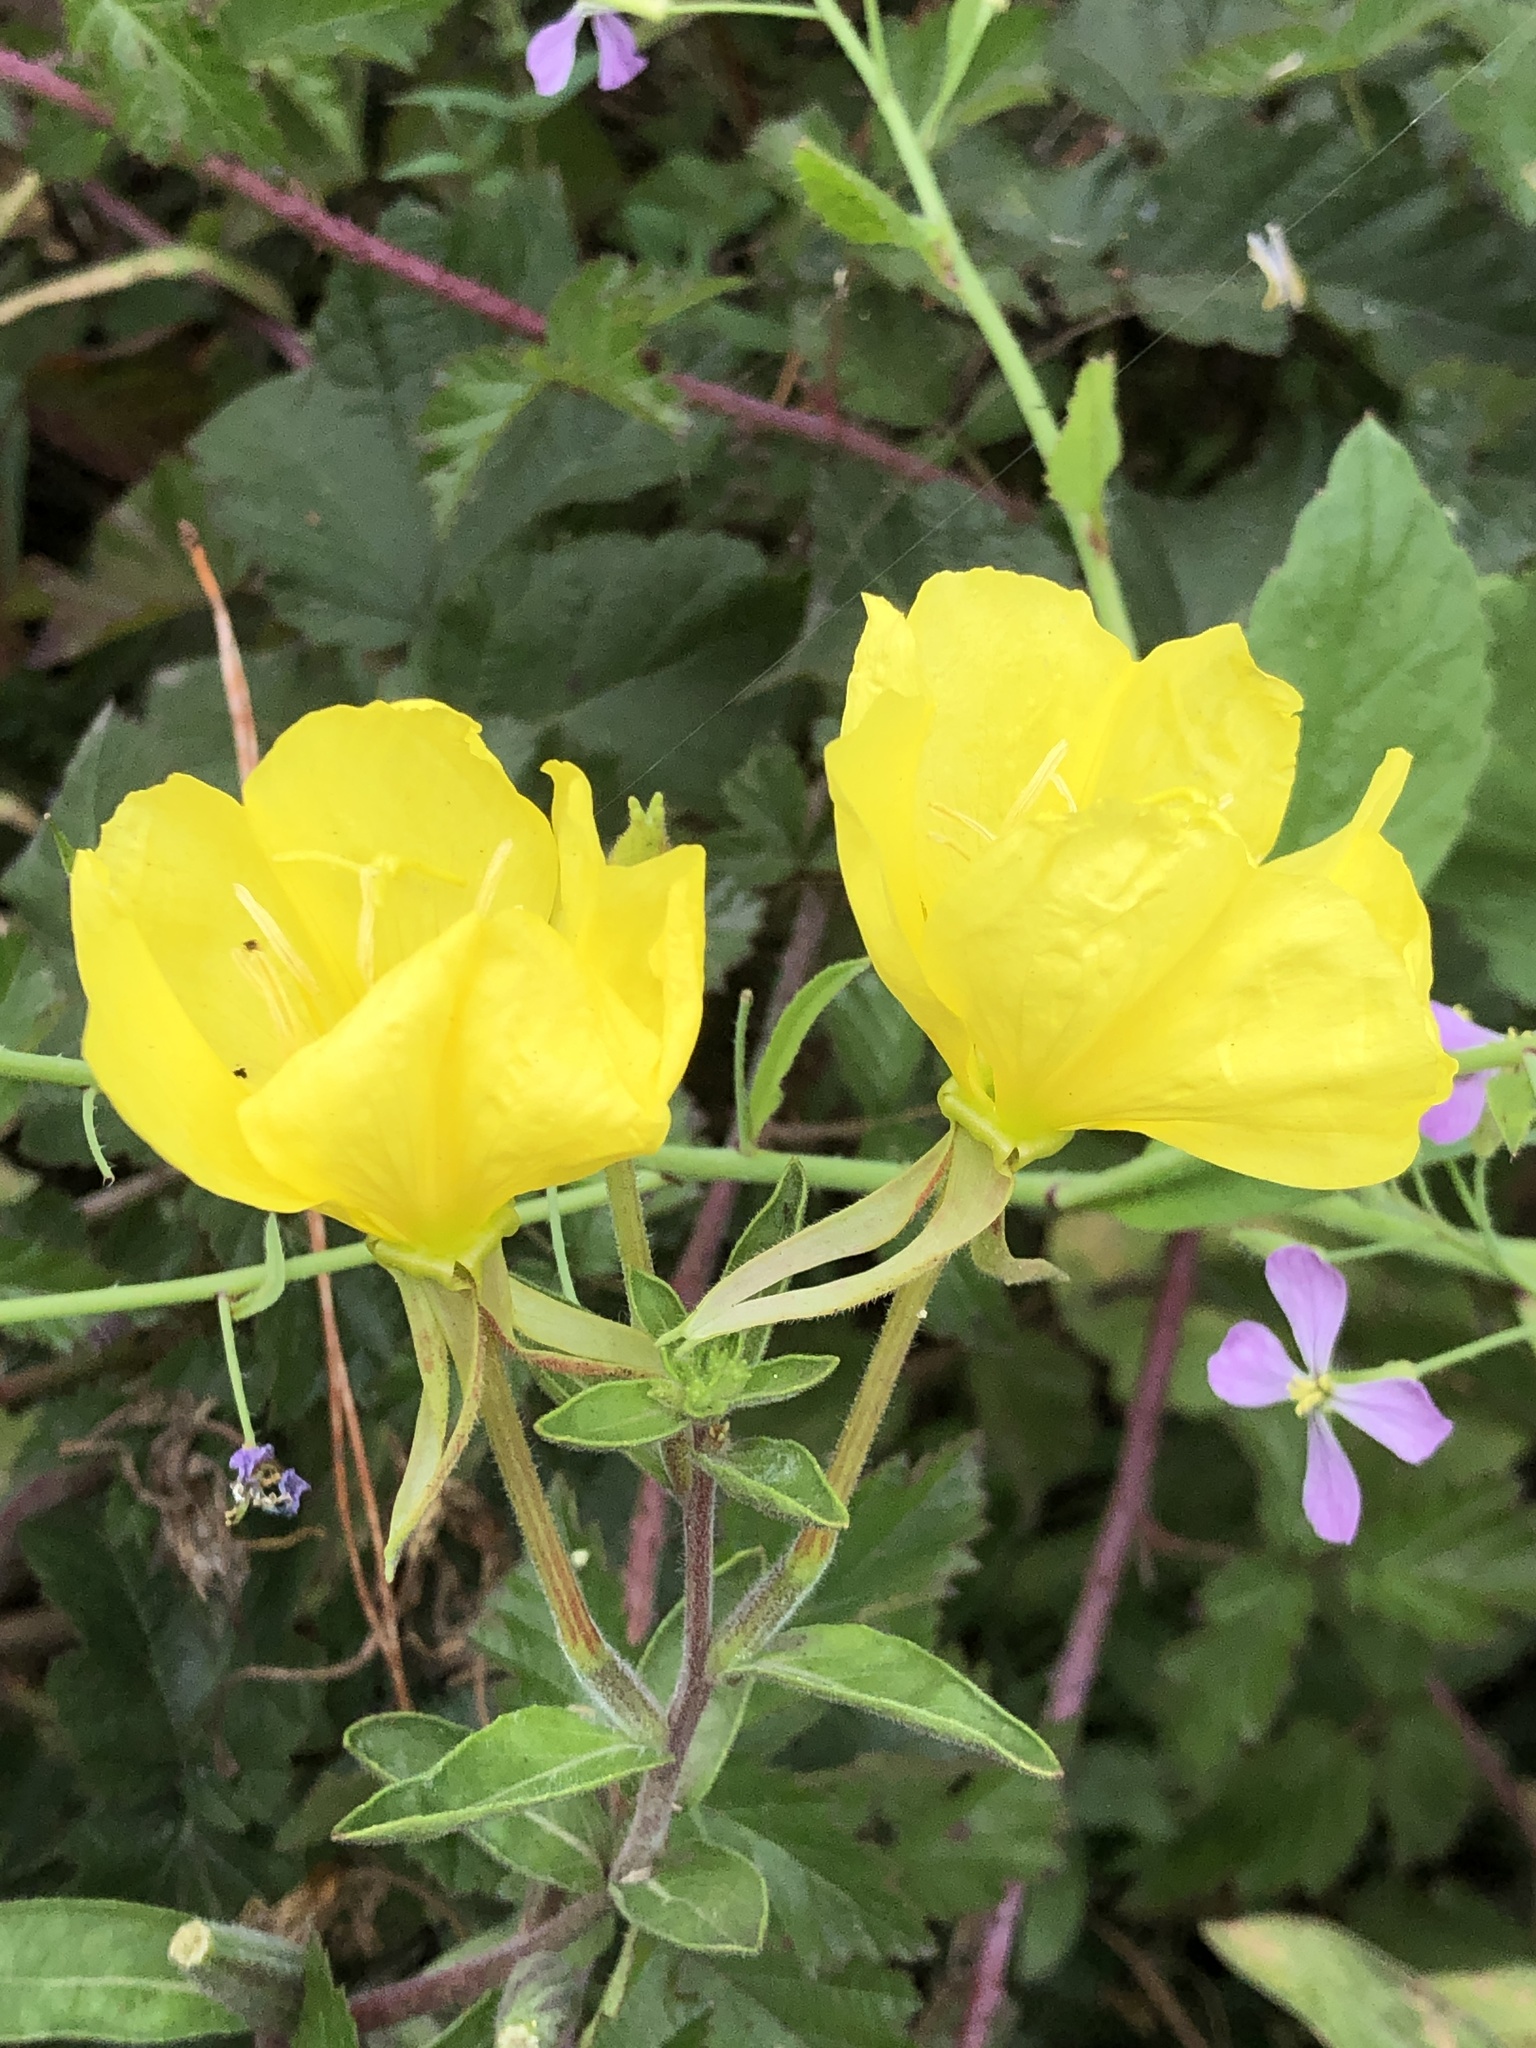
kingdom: Plantae
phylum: Tracheophyta
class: Magnoliopsida
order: Myrtales
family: Onagraceae
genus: Oenothera
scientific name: Oenothera glazioviana
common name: Large-flowered evening-primrose
